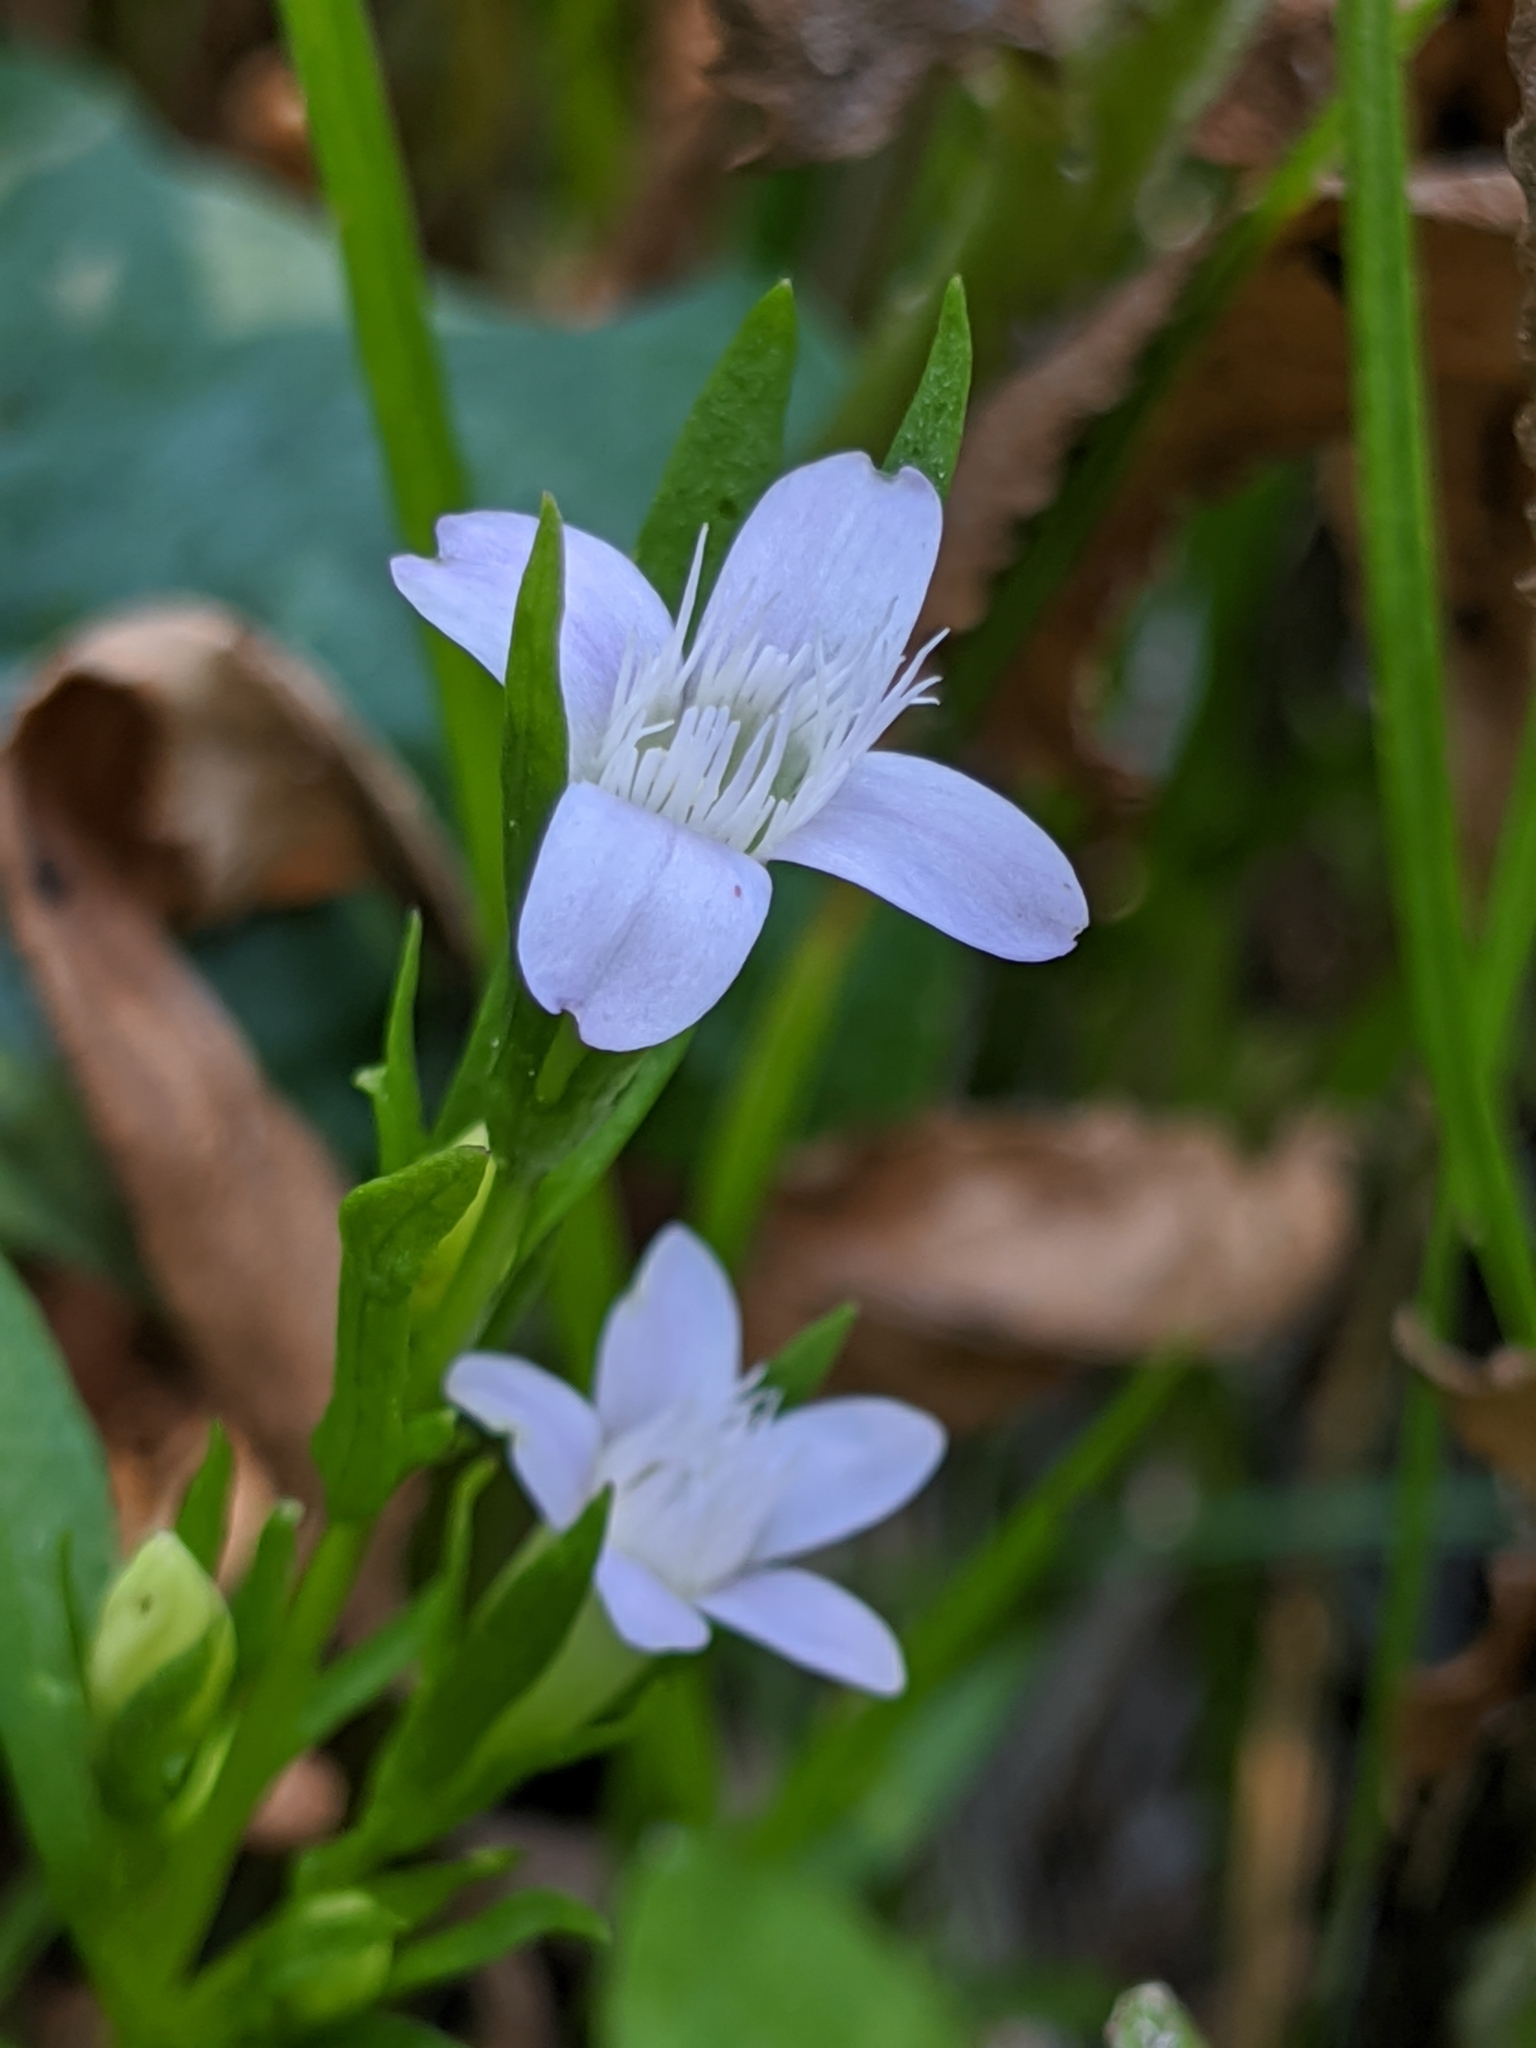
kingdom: Plantae
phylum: Tracheophyta
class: Magnoliopsida
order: Gentianales
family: Gentianaceae
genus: Gentianella
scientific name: Gentianella amarella
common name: Autumn gentian
